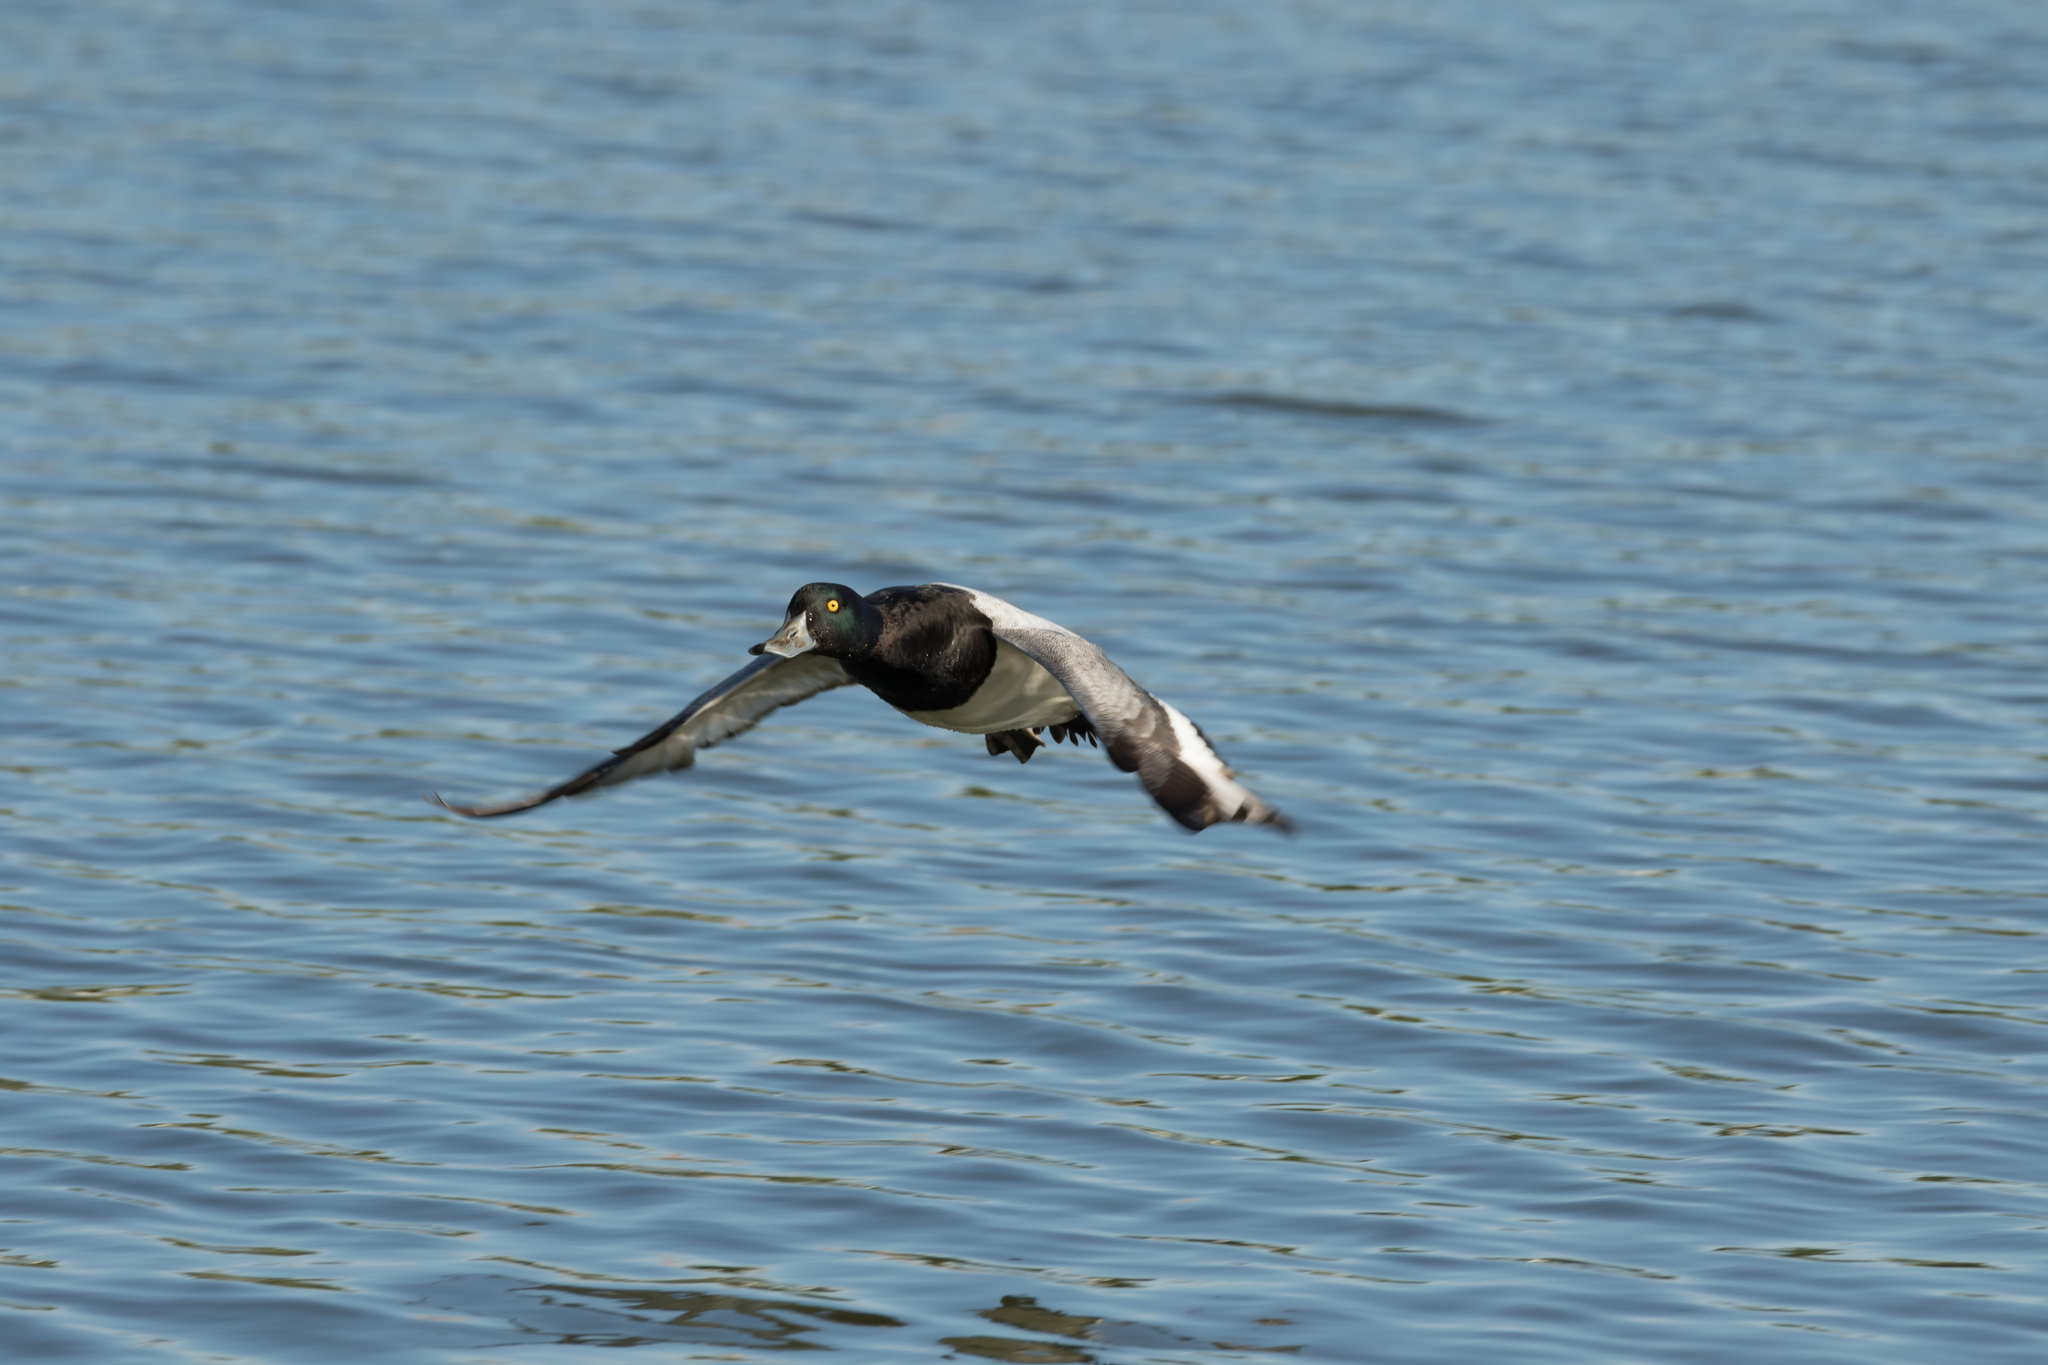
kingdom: Animalia
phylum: Chordata
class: Aves
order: Anseriformes
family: Anatidae
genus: Aythya
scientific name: Aythya marila
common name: Greater scaup
